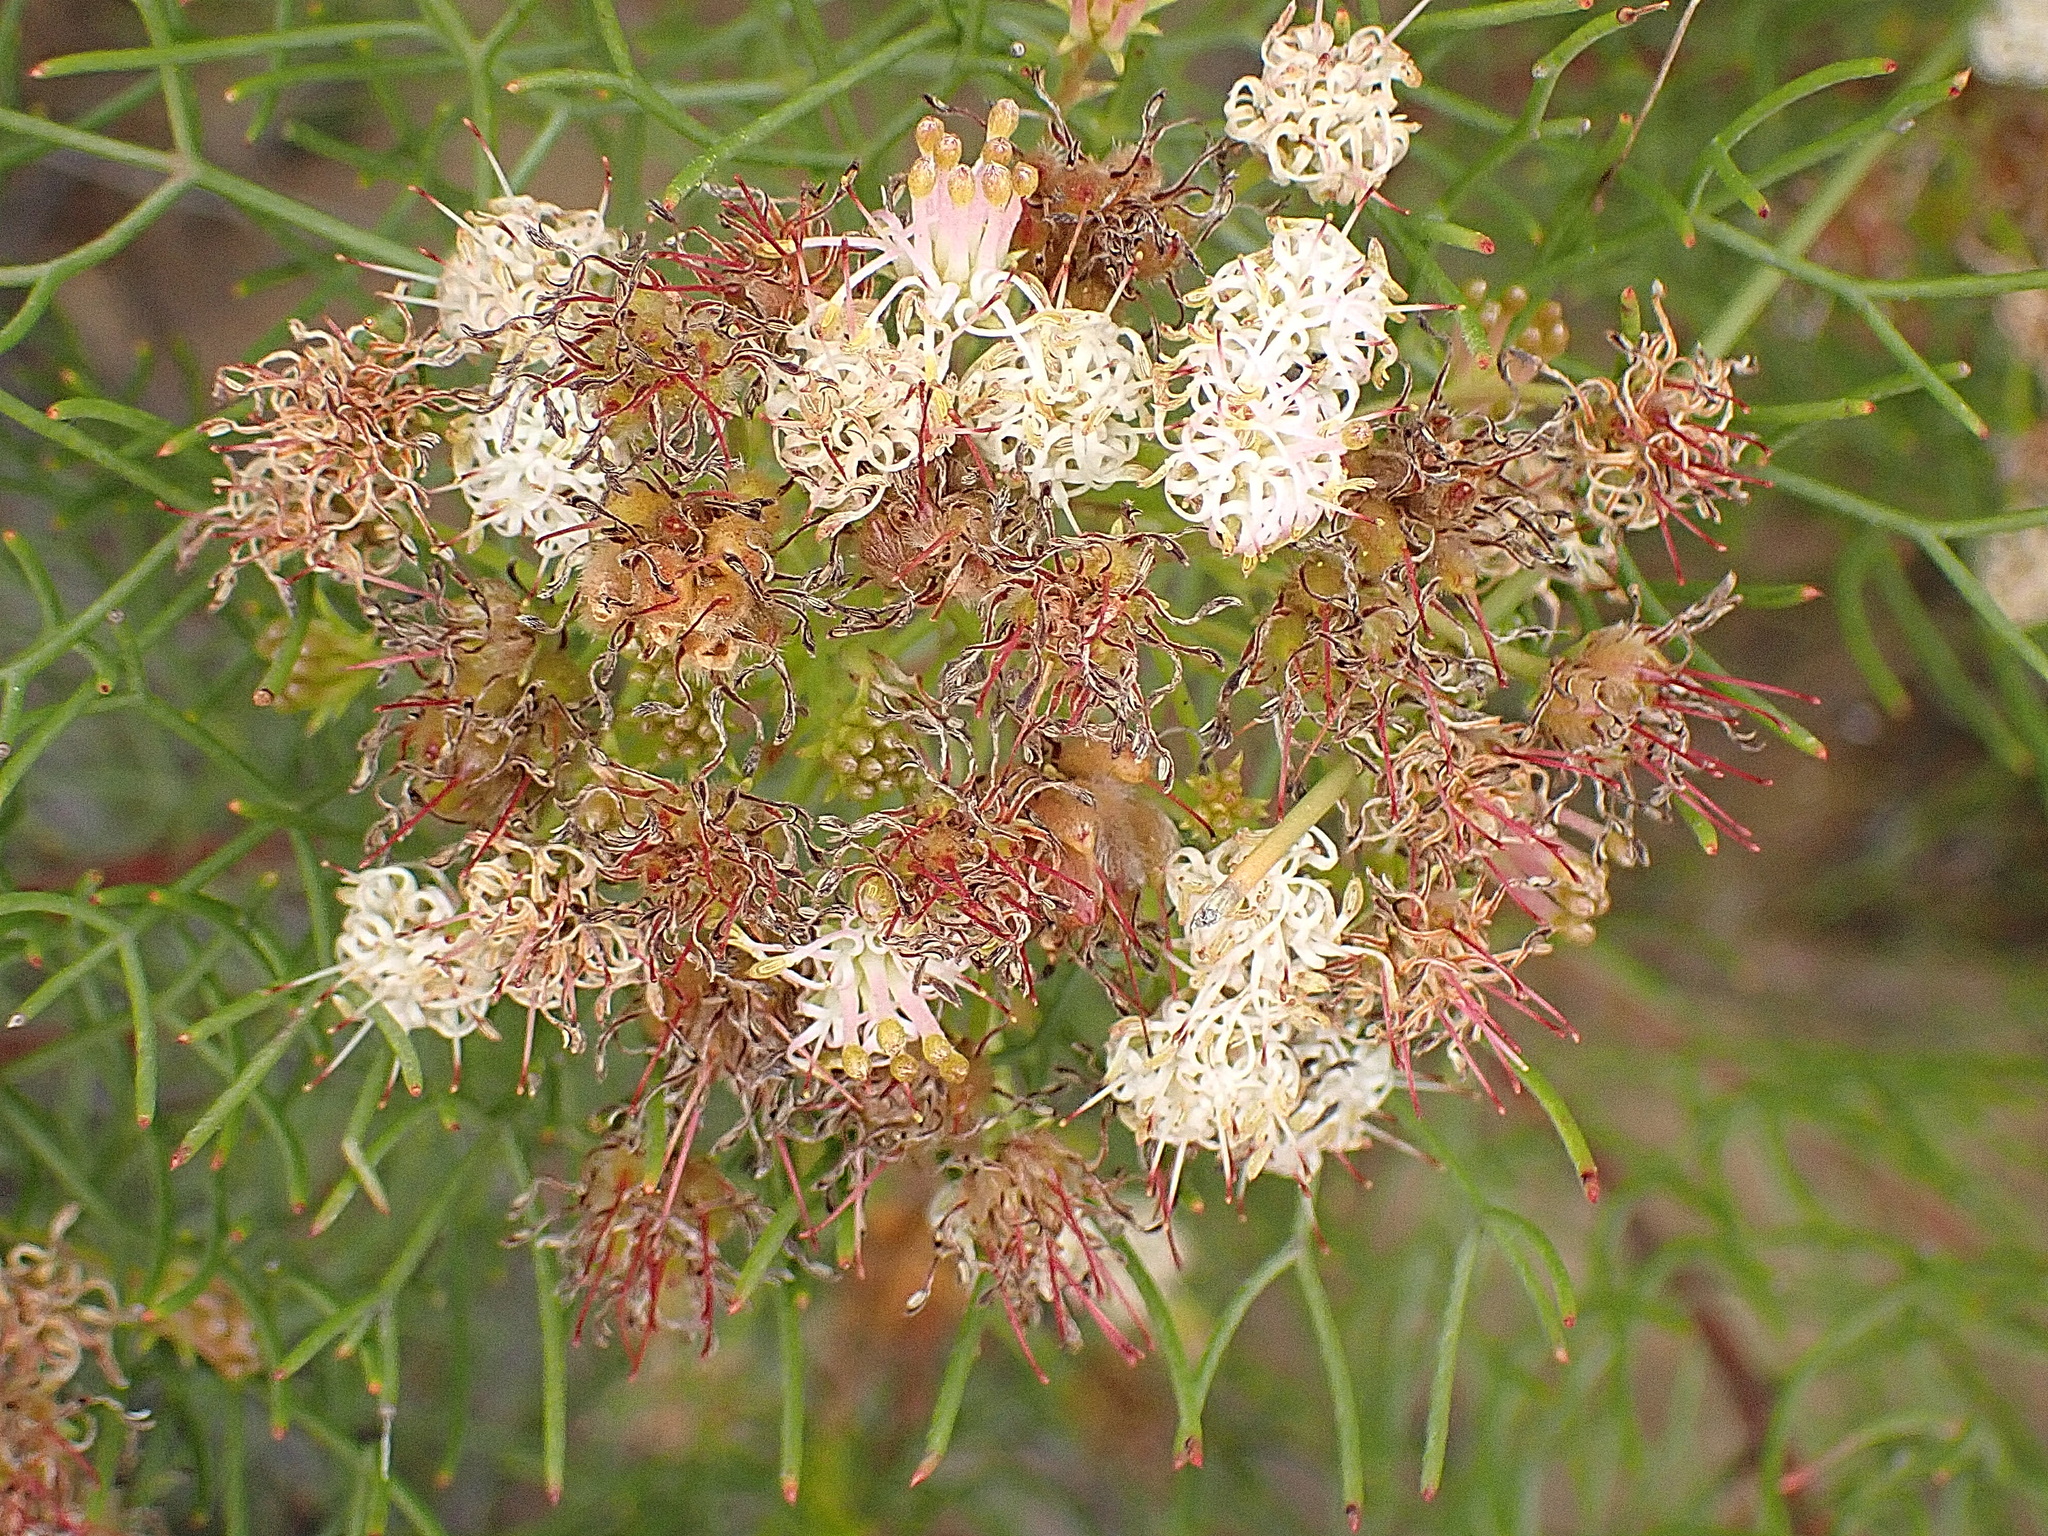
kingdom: Plantae
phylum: Tracheophyta
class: Magnoliopsida
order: Proteales
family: Proteaceae
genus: Serruria
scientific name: Serruria fasciflora
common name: Common pin spiderhead
